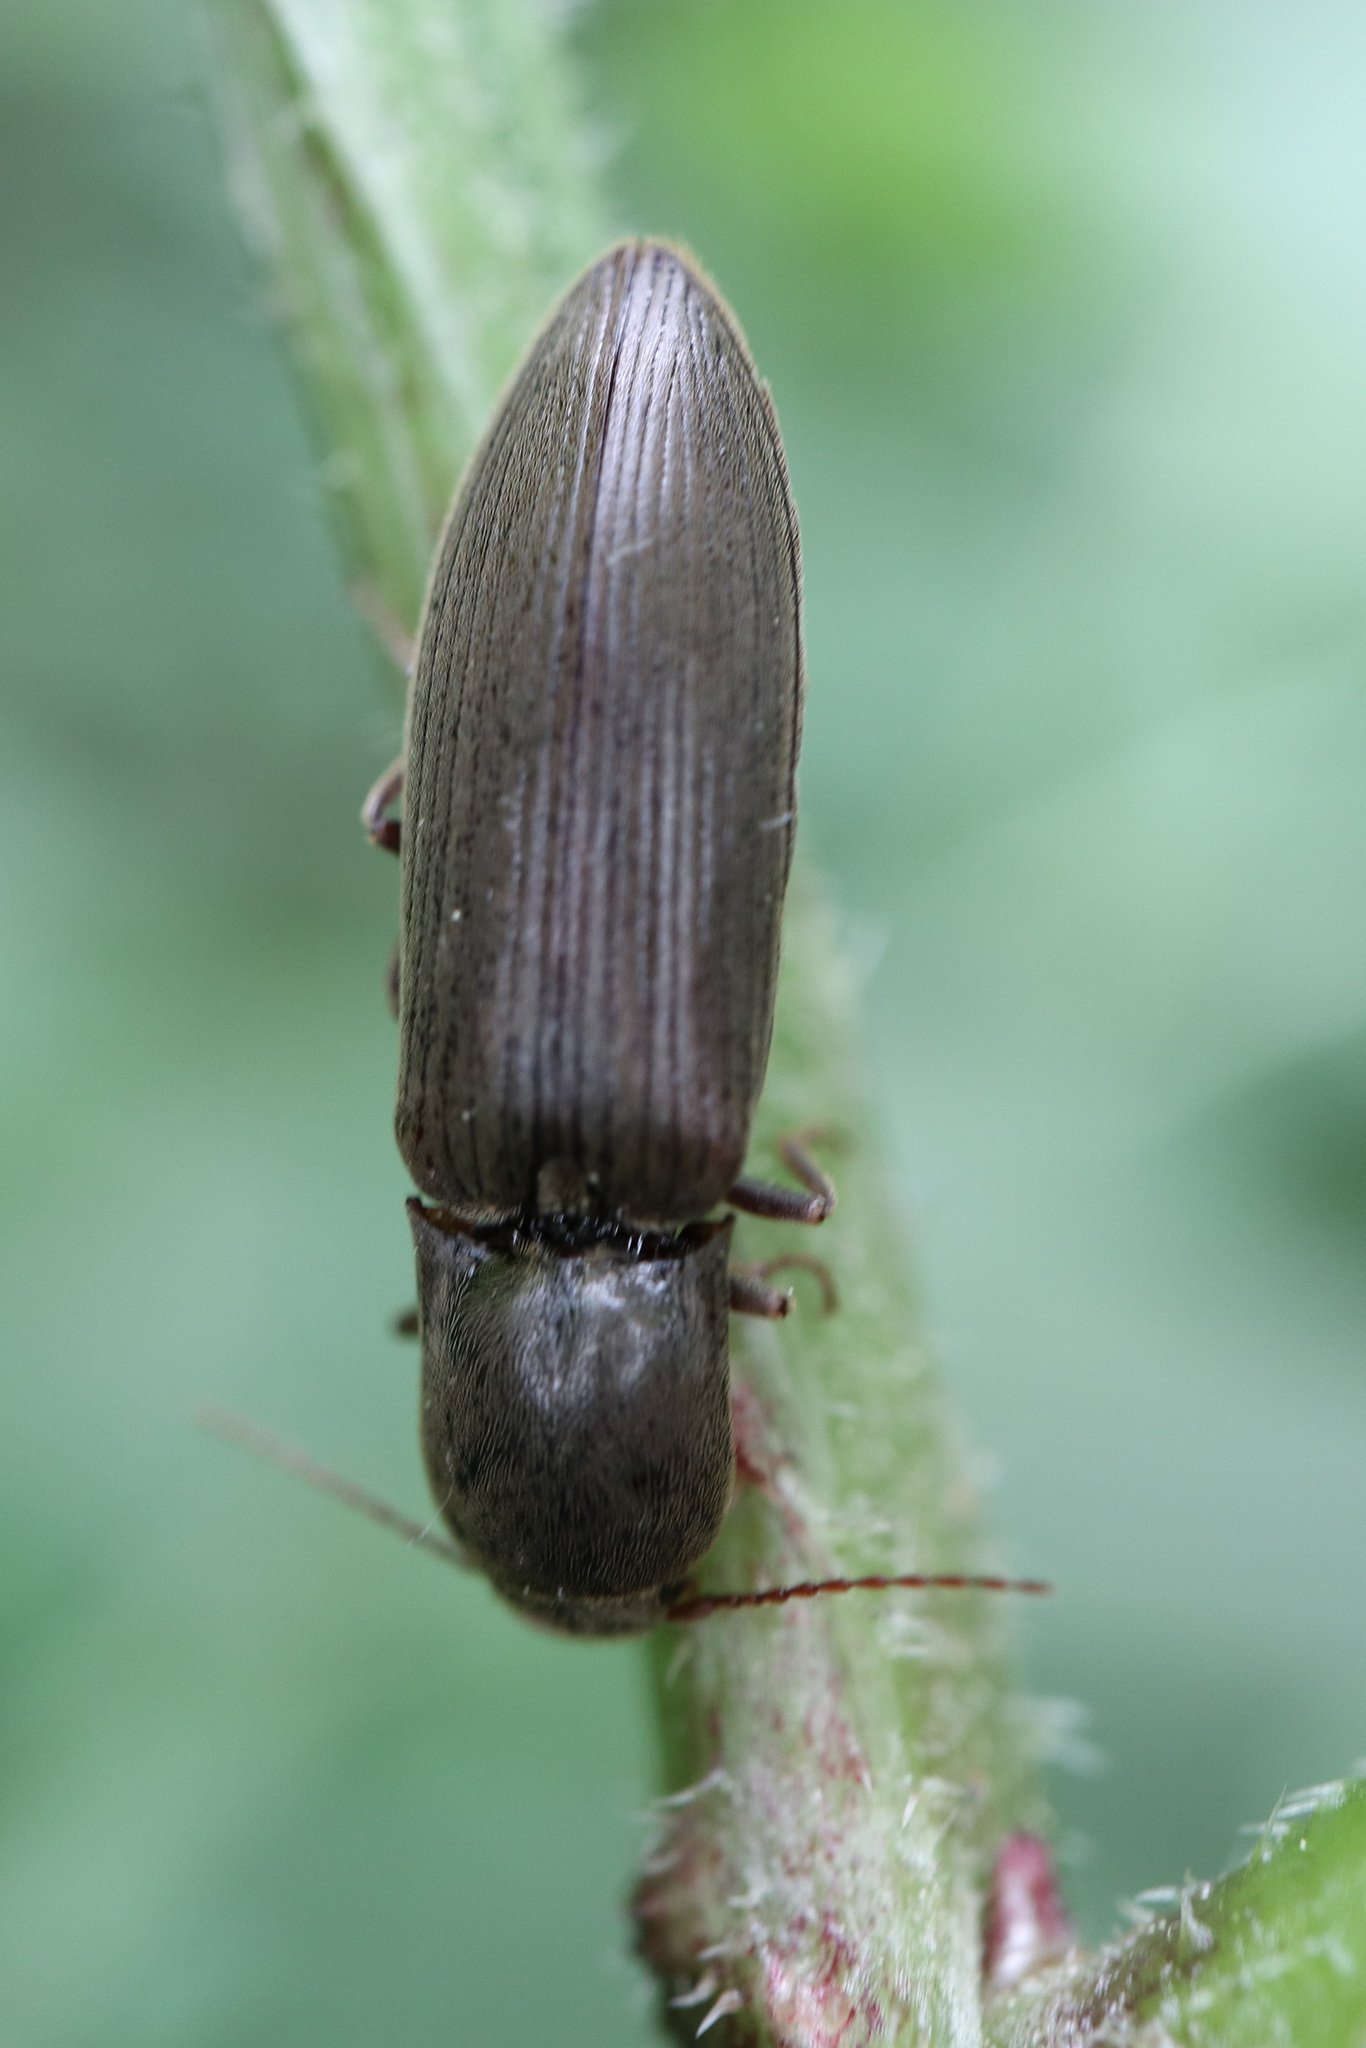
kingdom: Animalia
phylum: Arthropoda
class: Insecta
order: Coleoptera
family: Elateridae
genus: Agriotes
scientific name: Agriotes pilosellus
